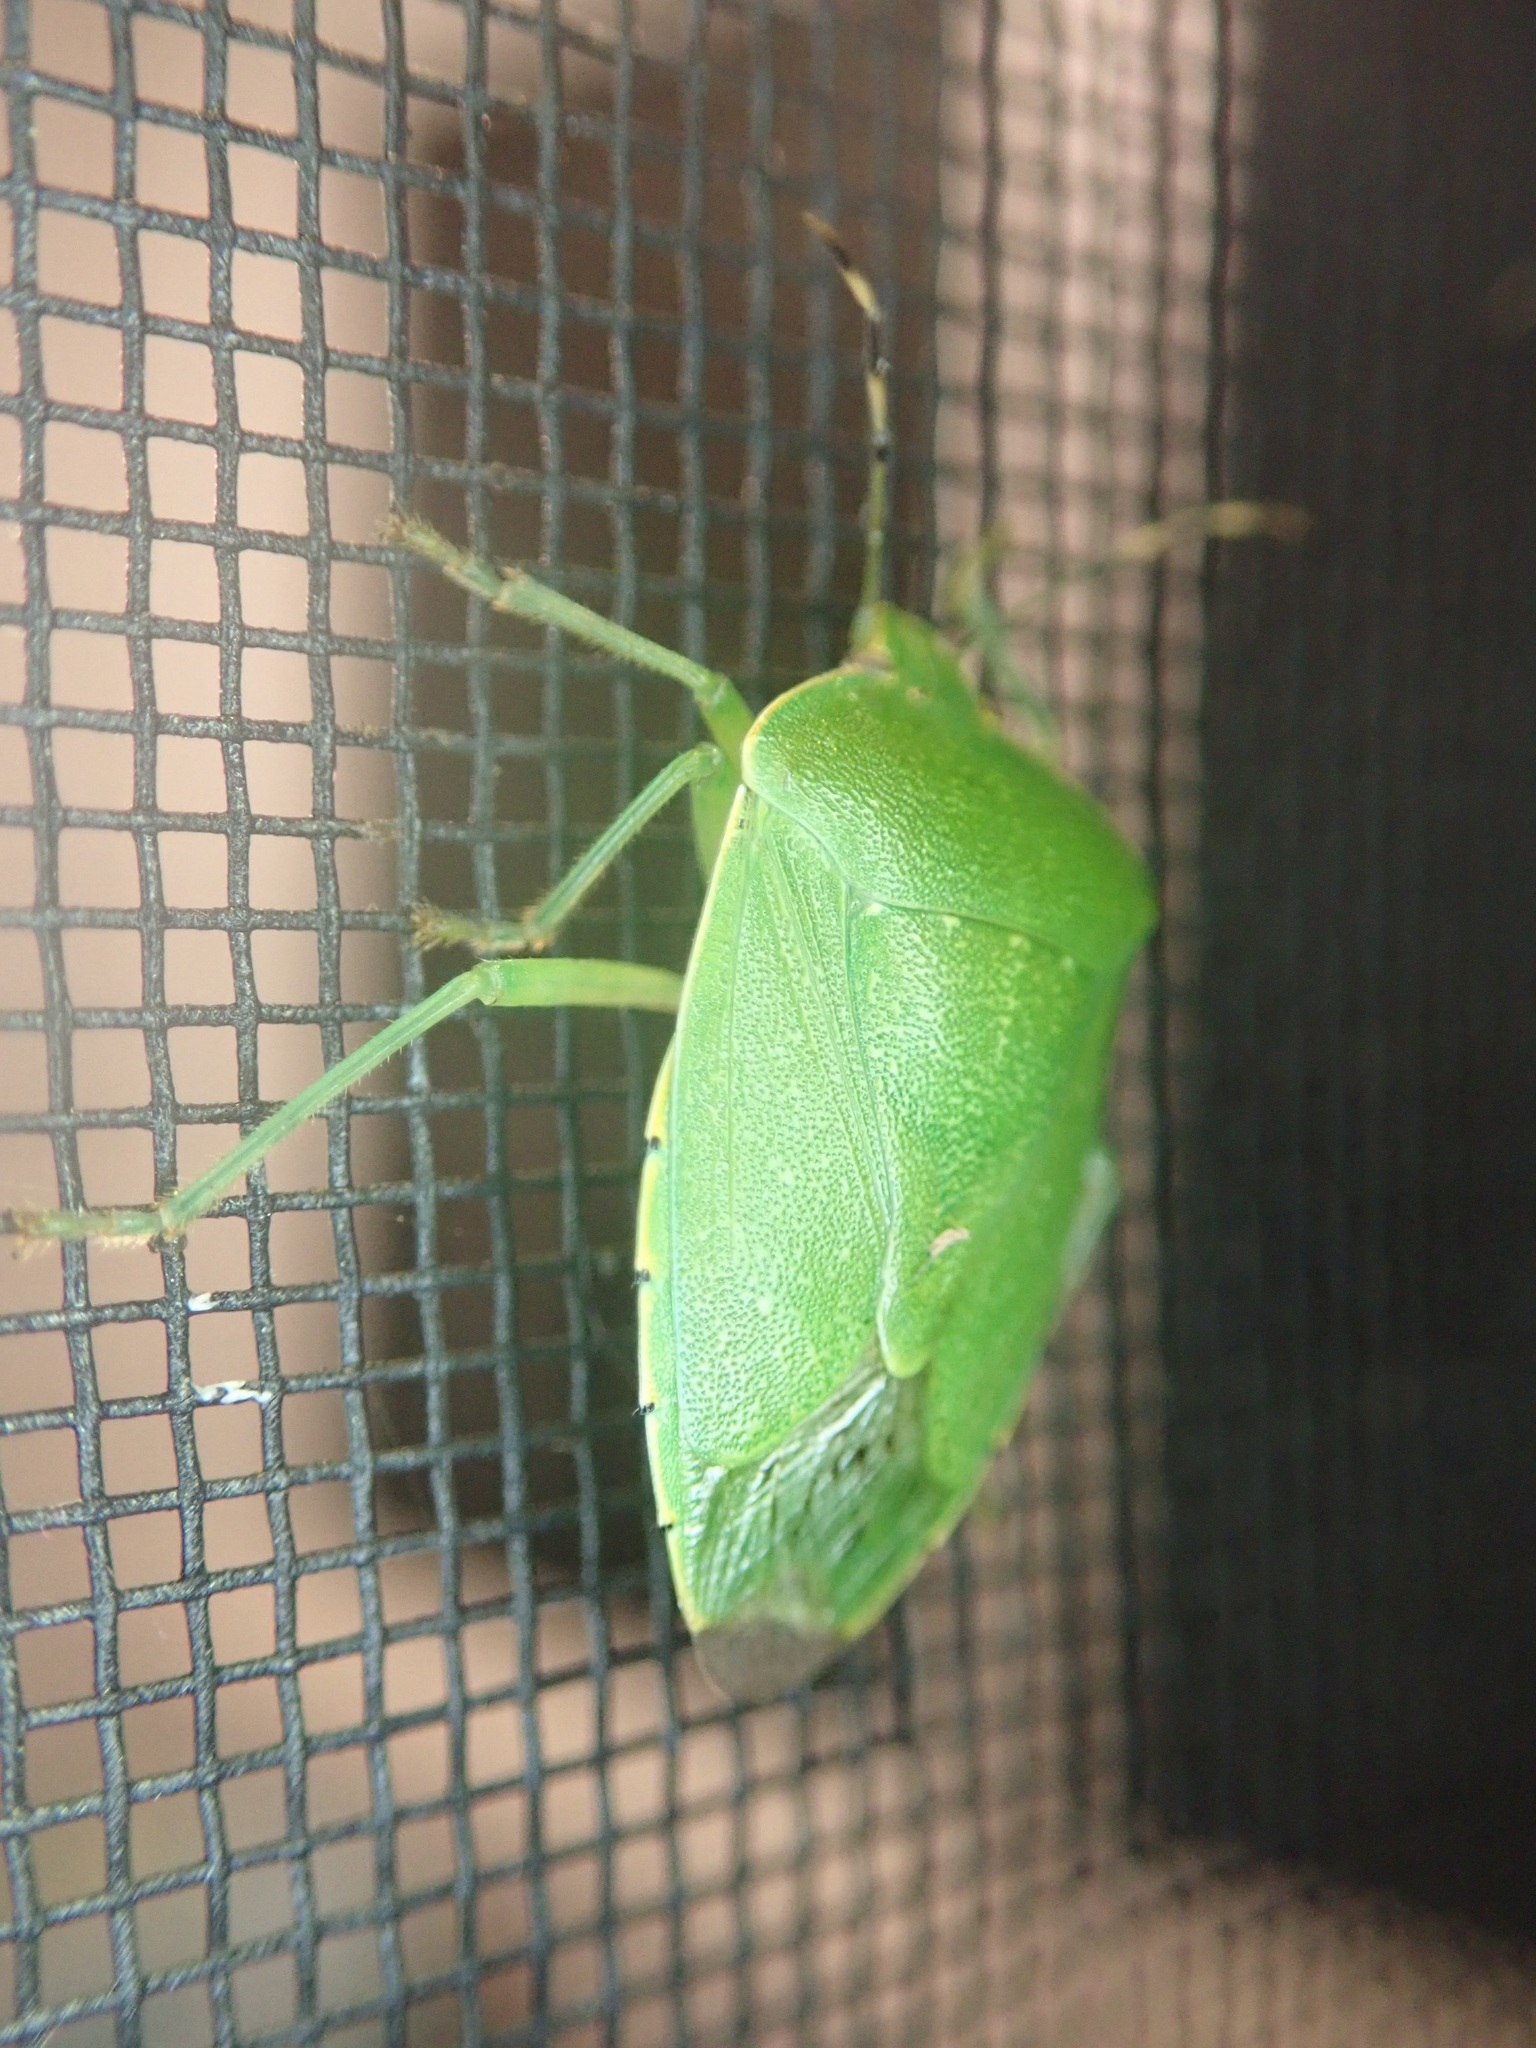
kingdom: Animalia
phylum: Arthropoda
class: Insecta
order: Hemiptera
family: Pentatomidae
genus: Chinavia
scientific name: Chinavia hilaris
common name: Green stink bug
